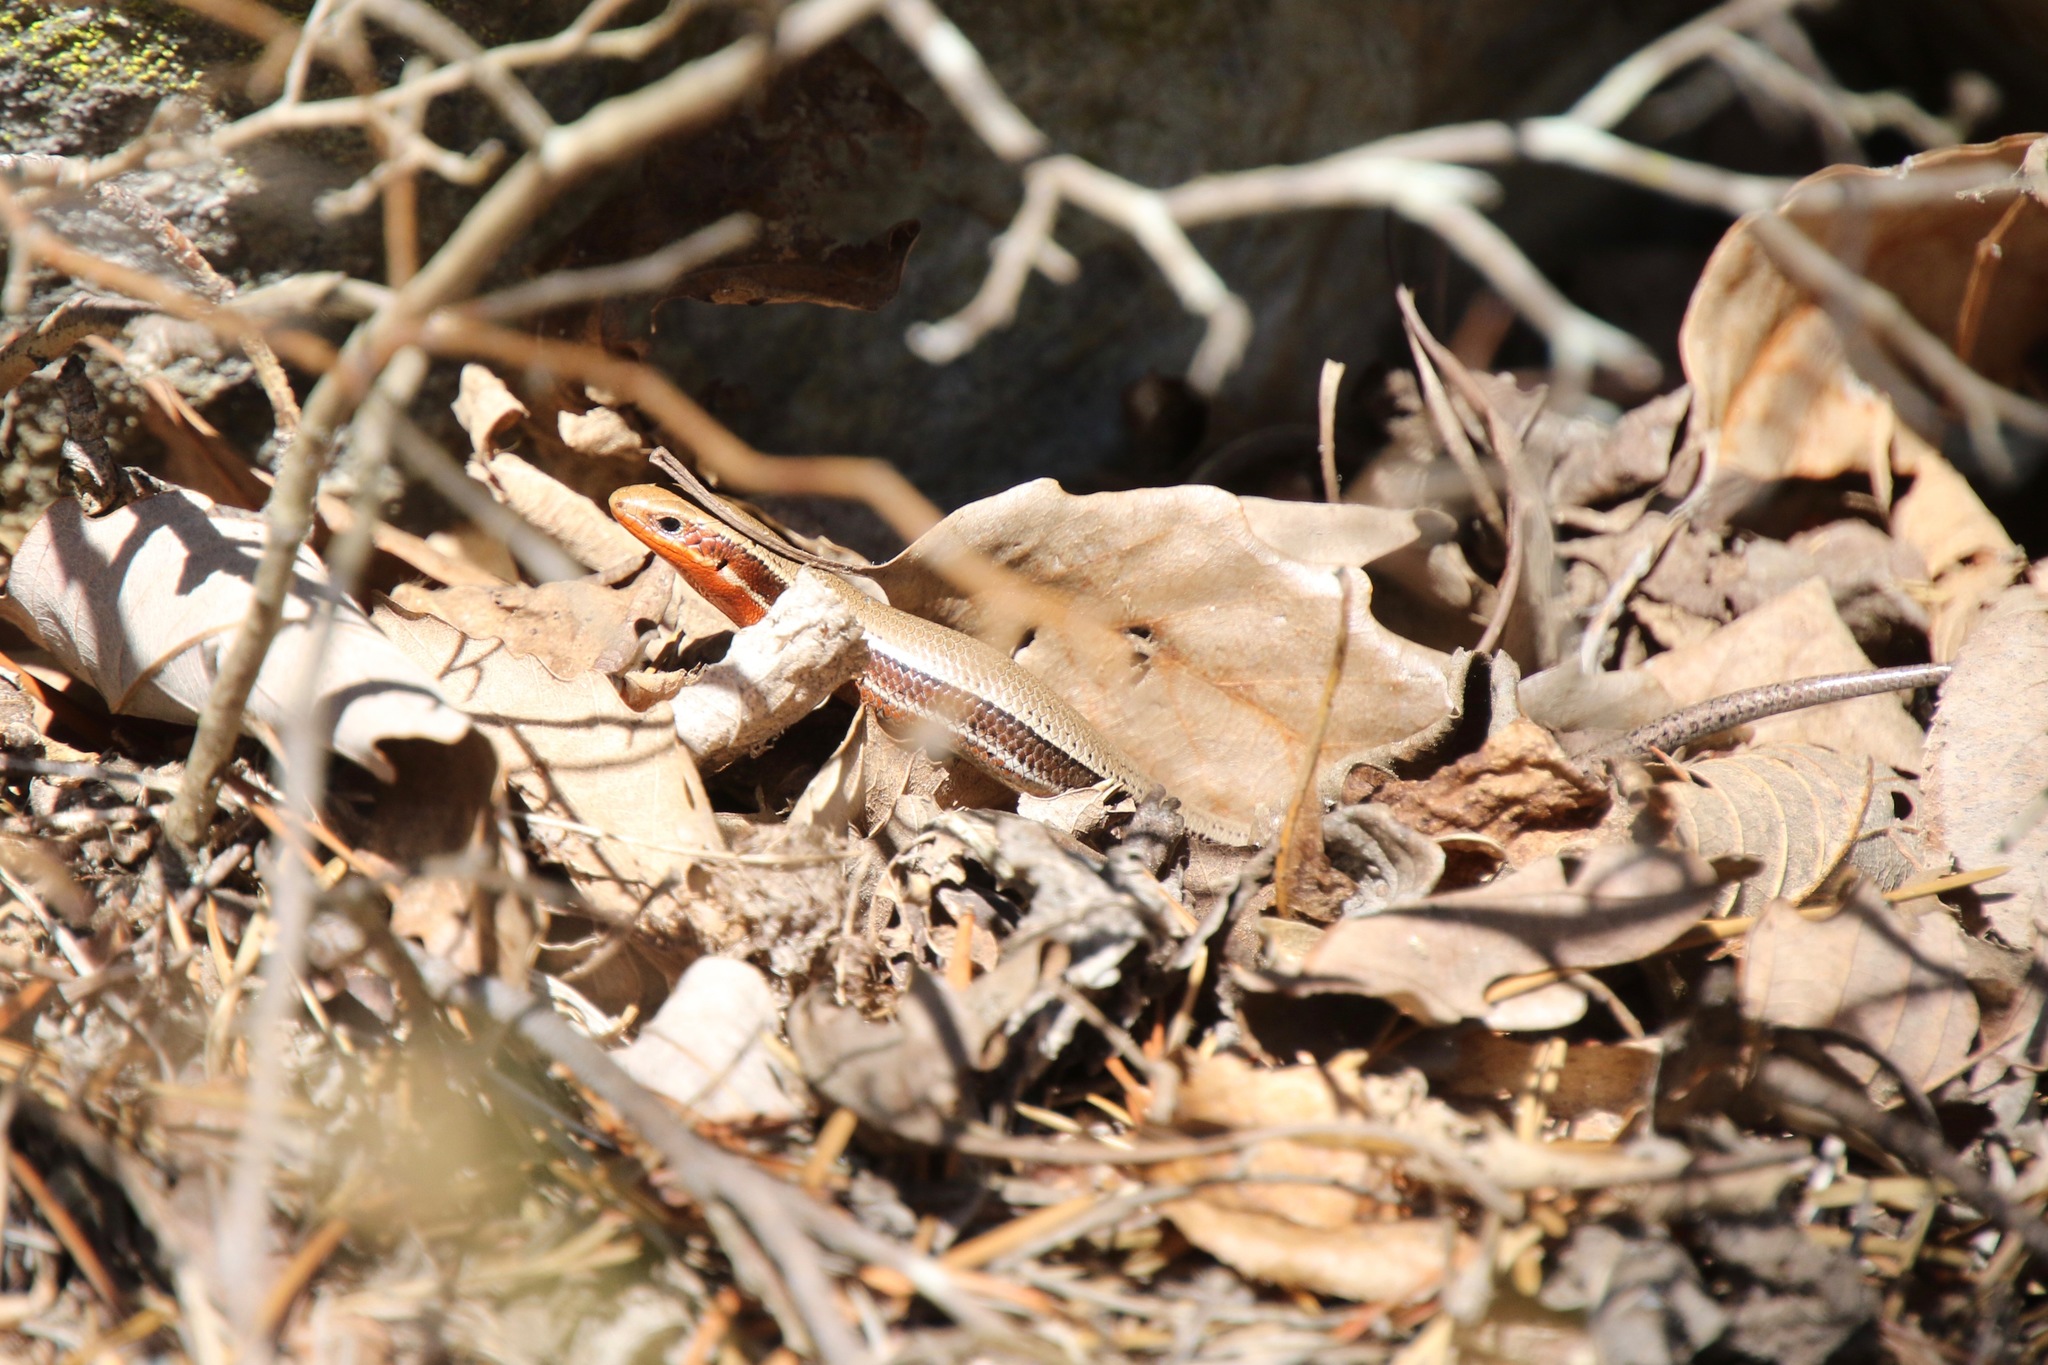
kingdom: Animalia
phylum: Chordata
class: Squamata
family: Scincidae
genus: Plestiodon
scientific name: Plestiodon anthracinus
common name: Coal skink
